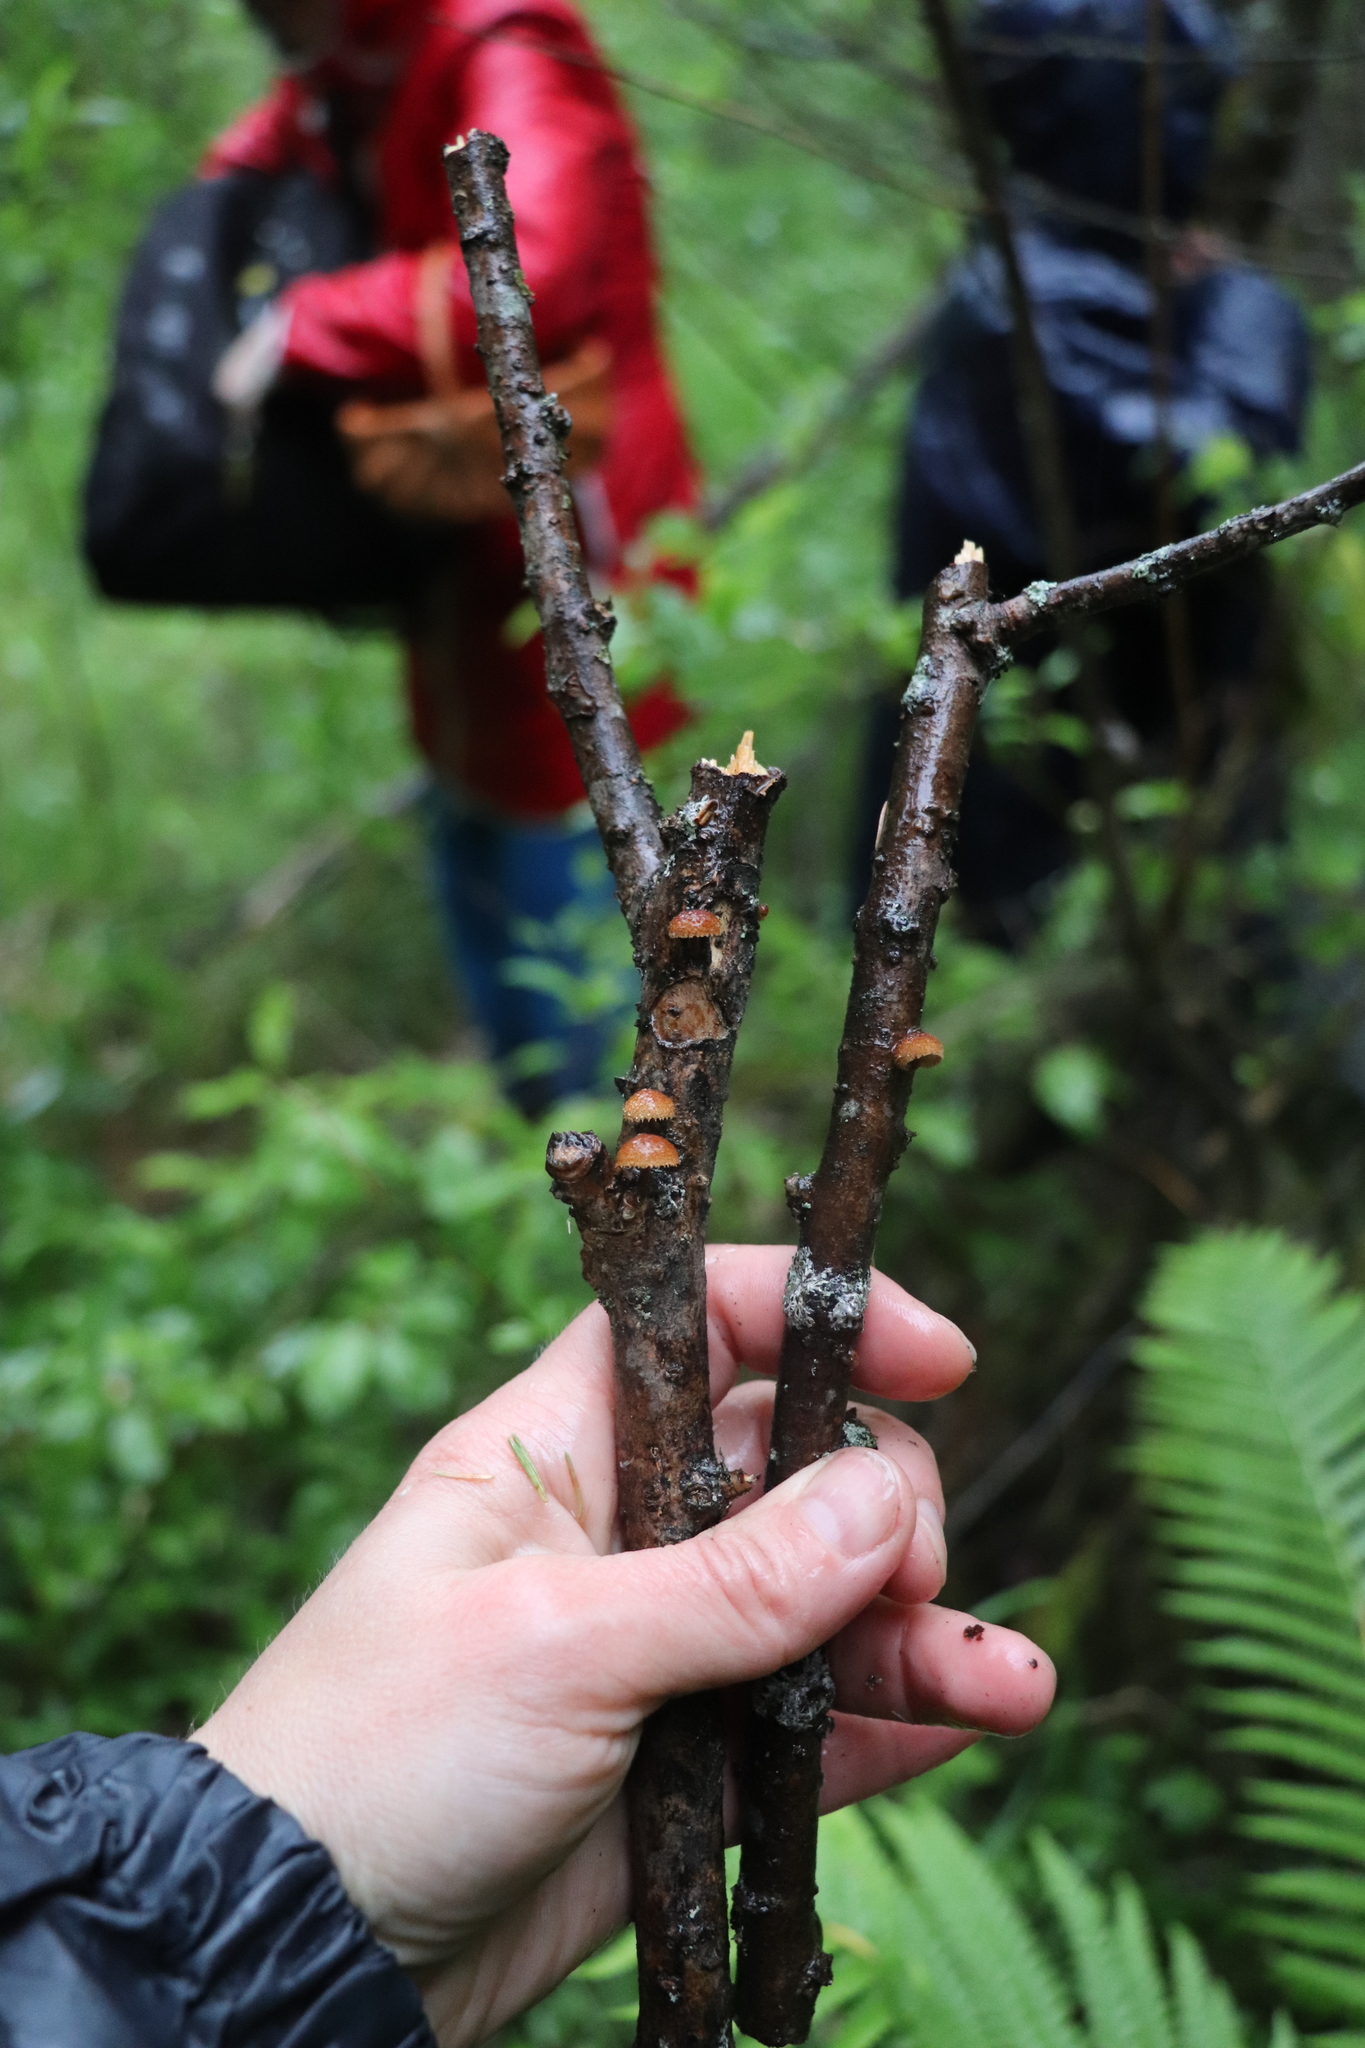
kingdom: Fungi
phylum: Basidiomycota
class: Agaricomycetes
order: Agaricales
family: Tubariaceae
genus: Phaeomarasmius
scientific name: Phaeomarasmius erinaceus
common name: Hedgehog scalycap
